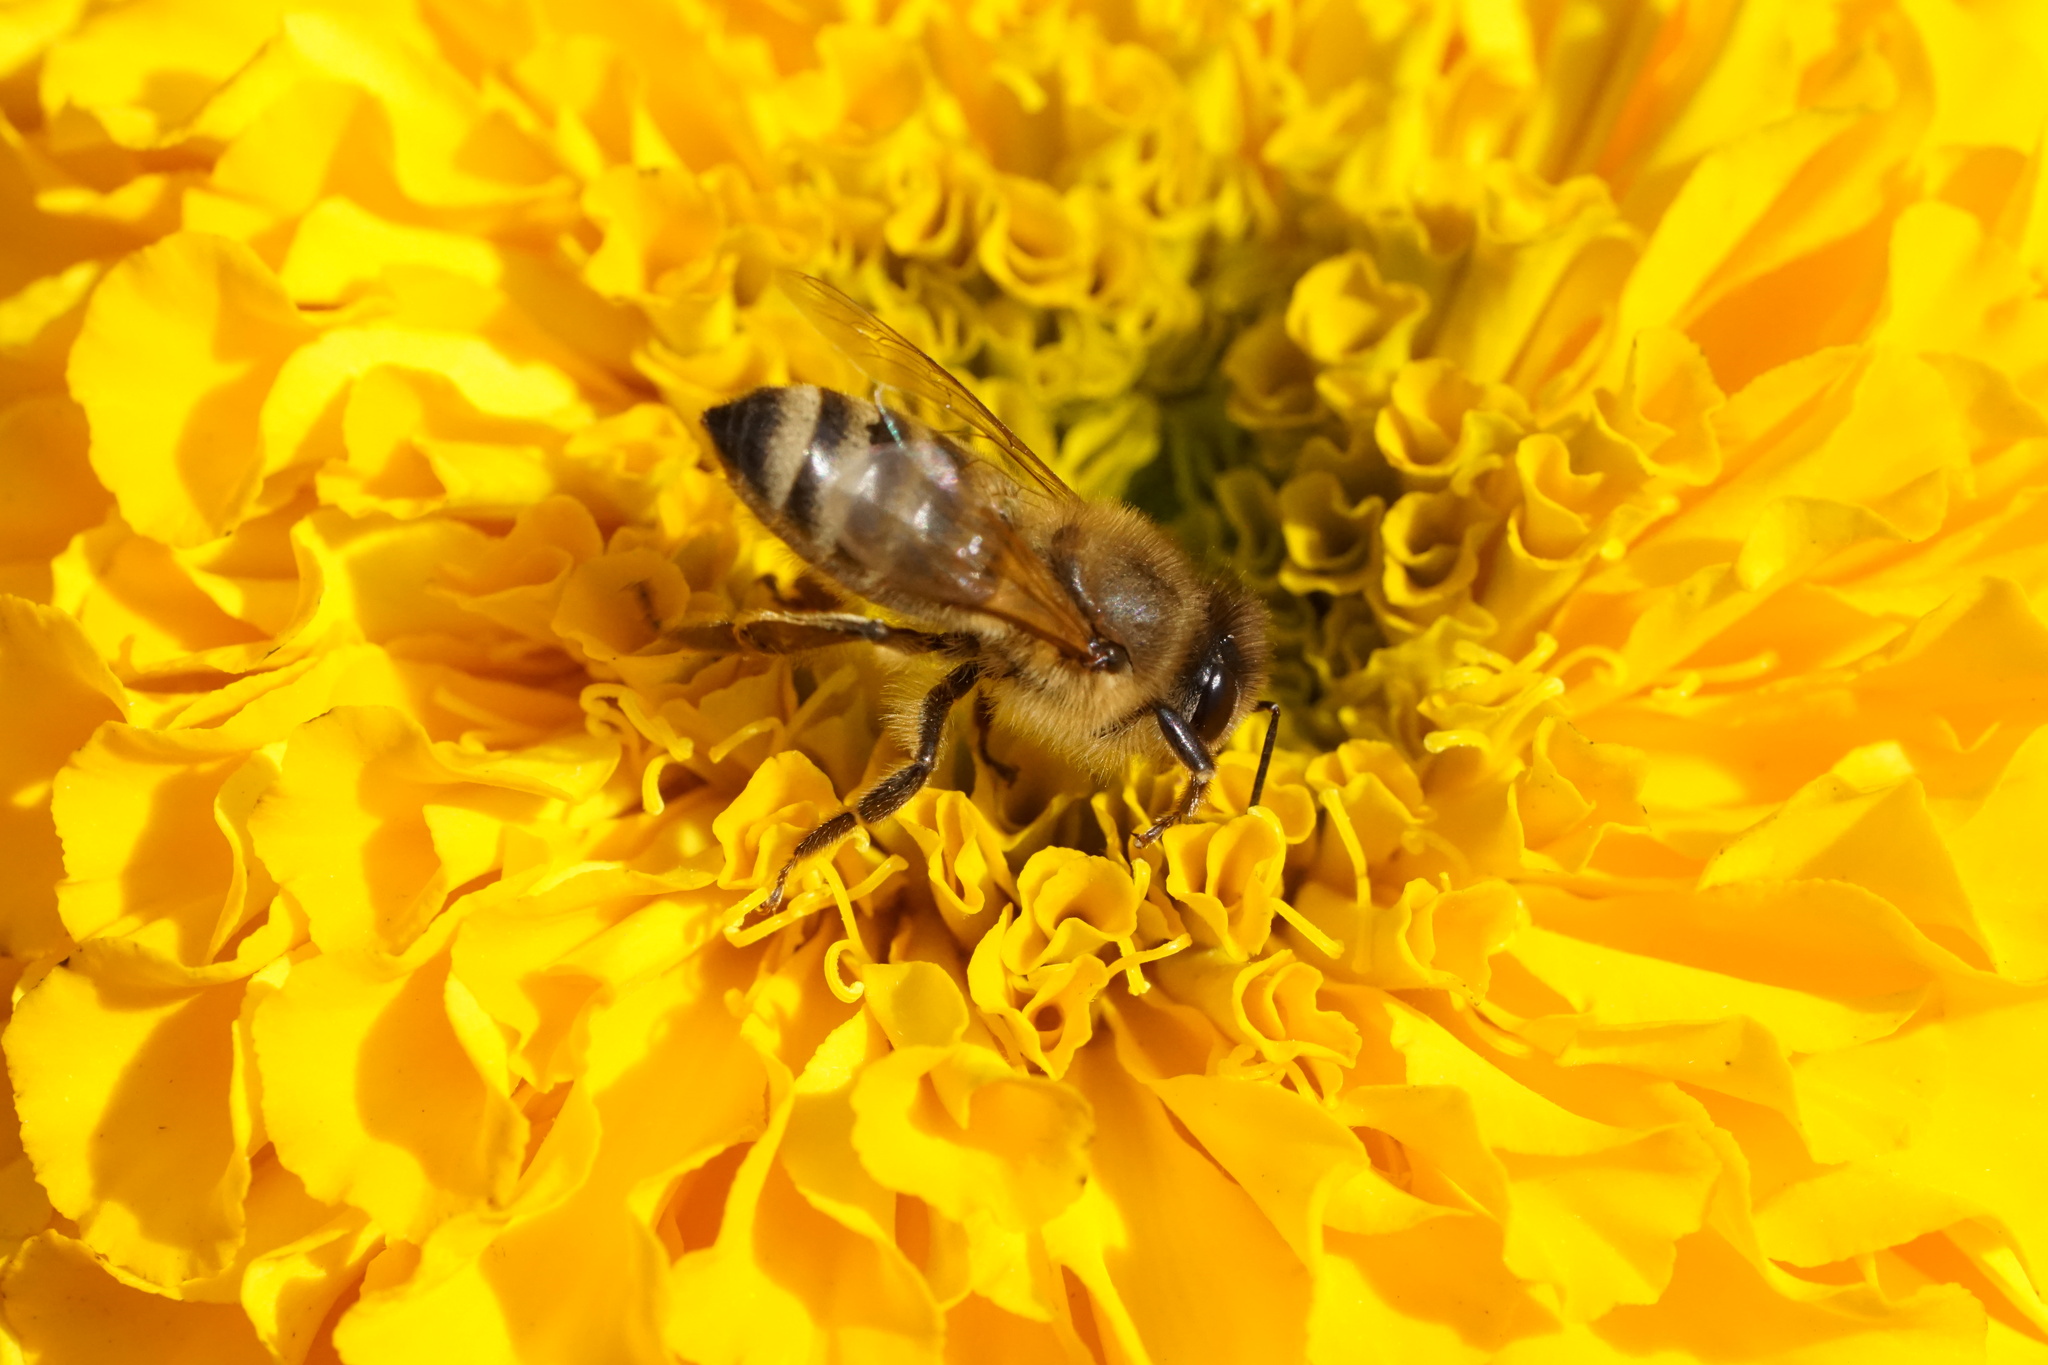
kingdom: Animalia
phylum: Arthropoda
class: Insecta
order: Hymenoptera
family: Apidae
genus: Apis
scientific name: Apis mellifera
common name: Honey bee
